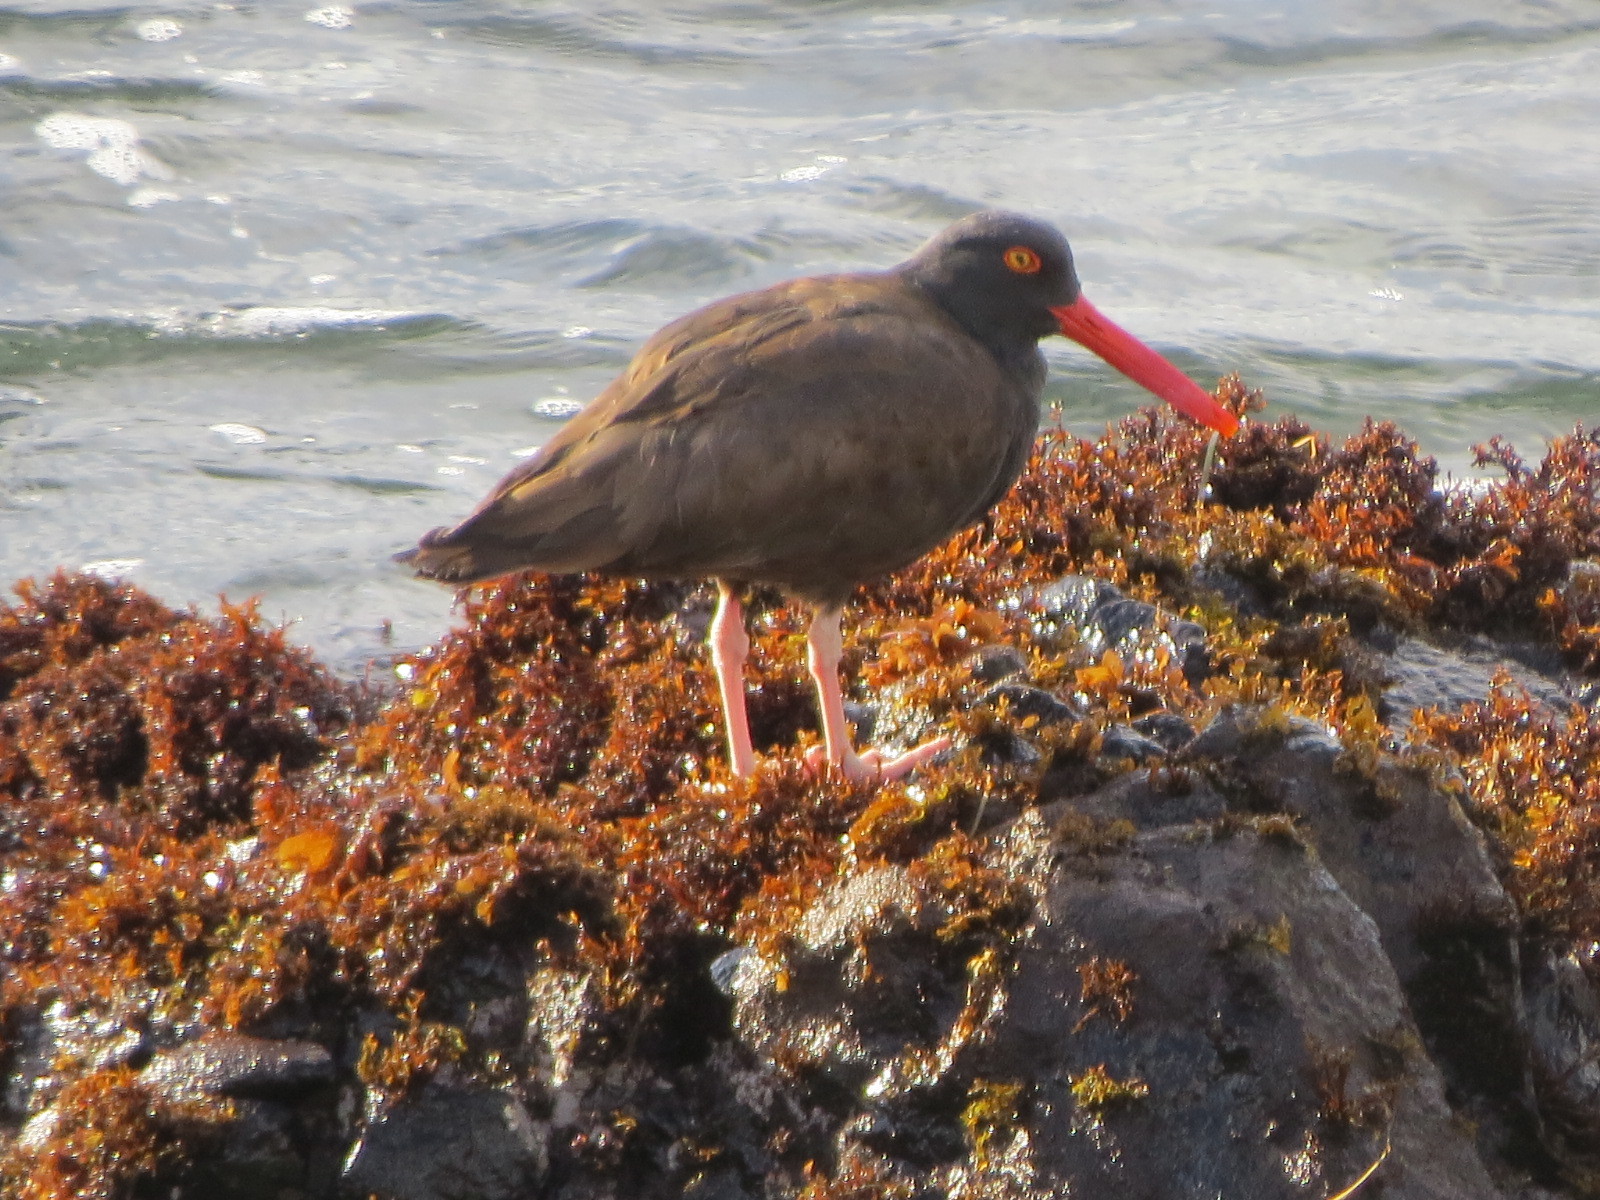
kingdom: Animalia
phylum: Chordata
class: Aves
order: Charadriiformes
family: Haematopodidae
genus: Haematopus
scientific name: Haematopus bachmani
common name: Black oystercatcher
